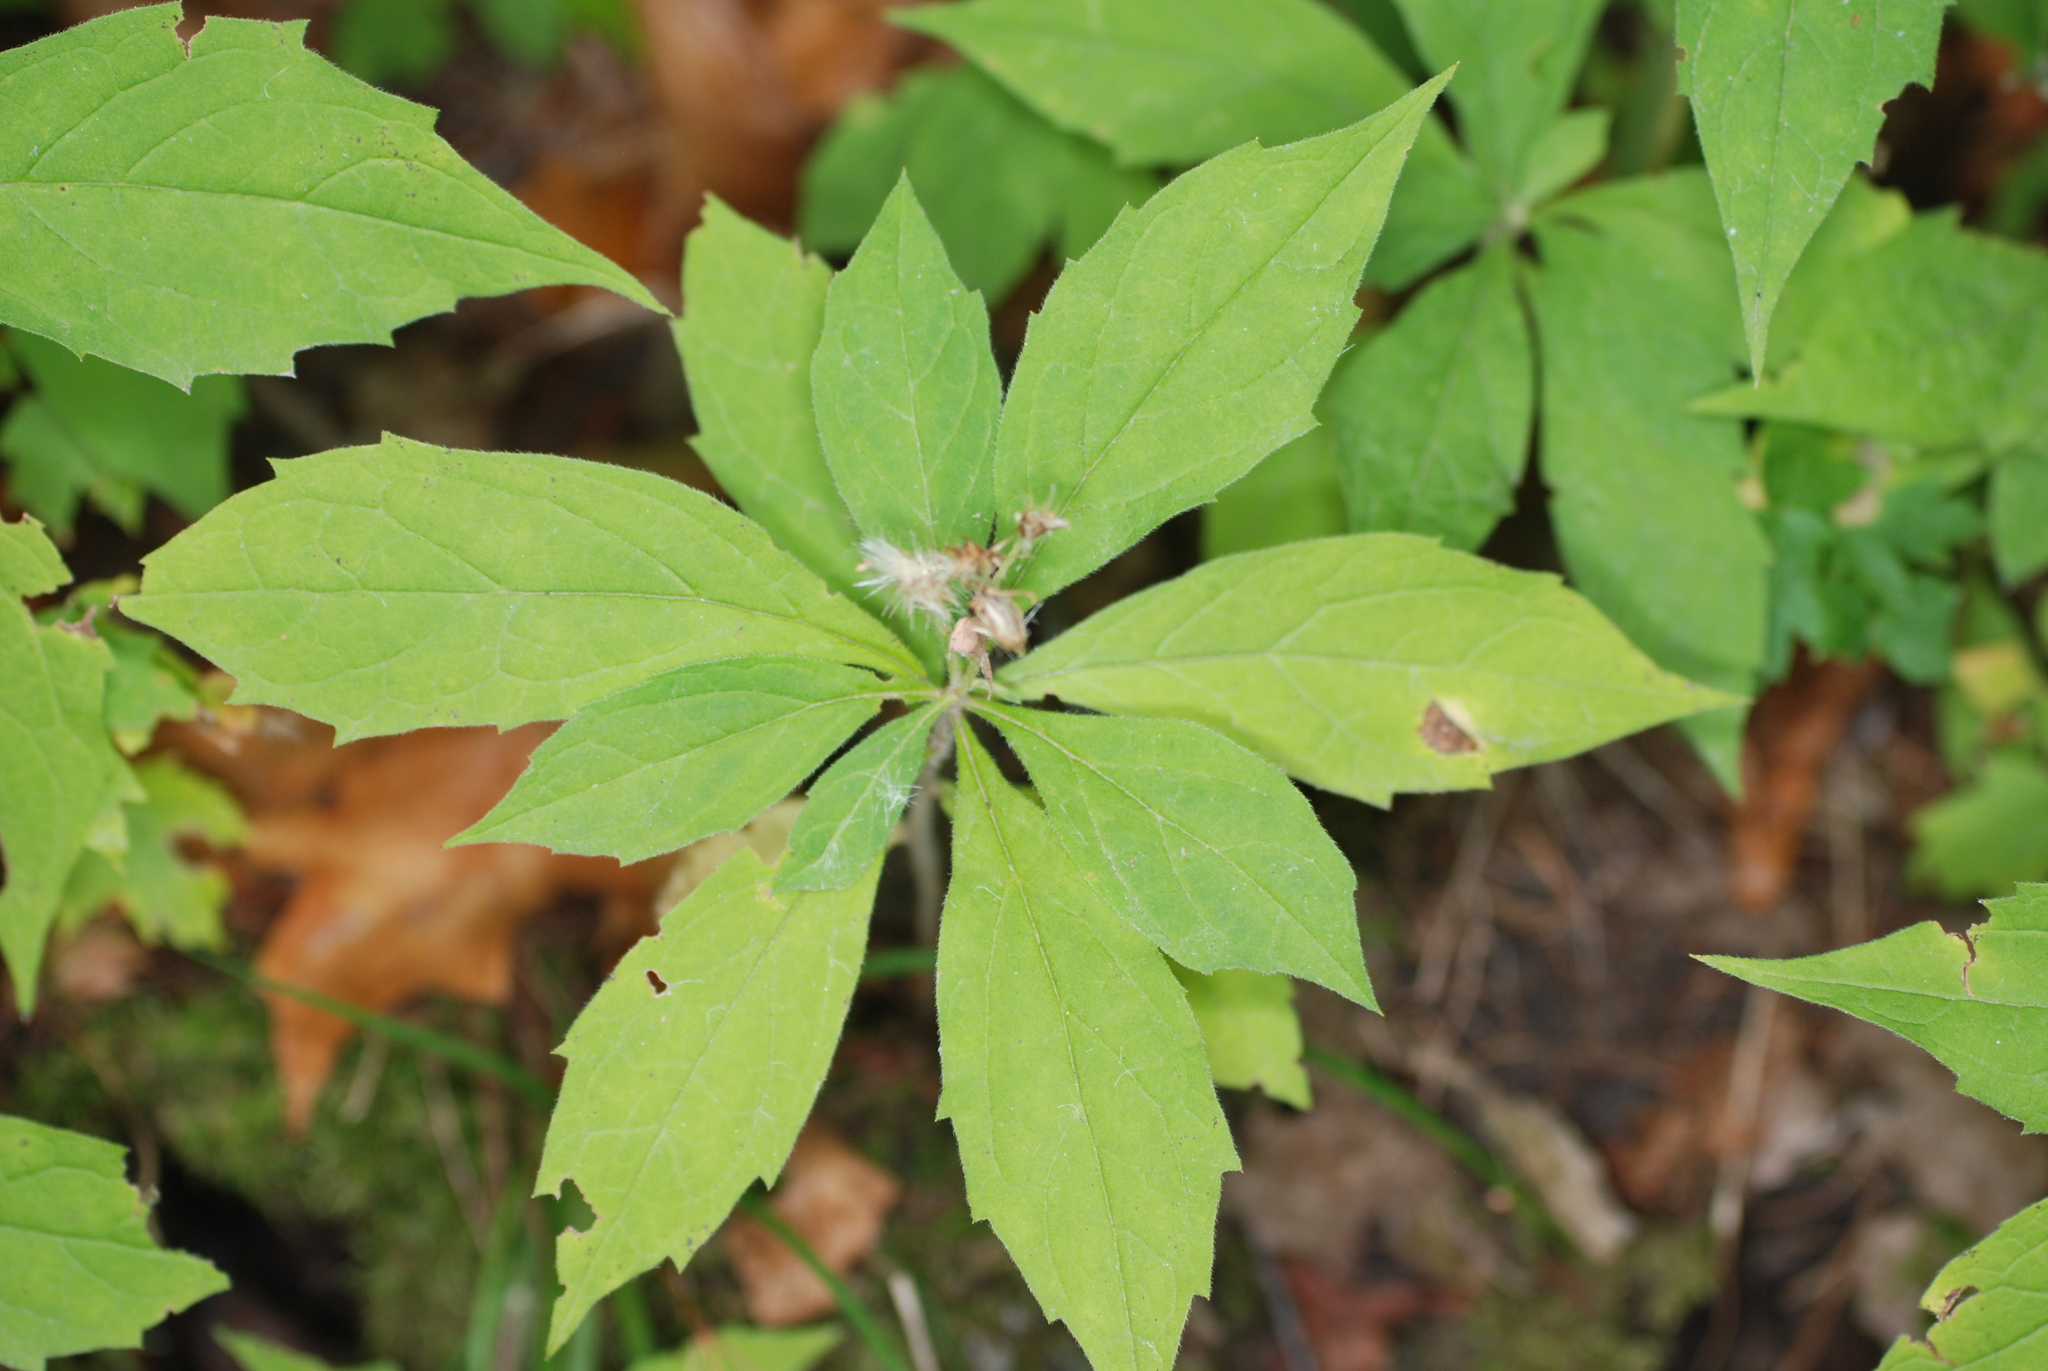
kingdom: Plantae
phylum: Tracheophyta
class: Magnoliopsida
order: Asterales
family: Asteraceae
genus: Oclemena
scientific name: Oclemena acuminata
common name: Mountain aster
